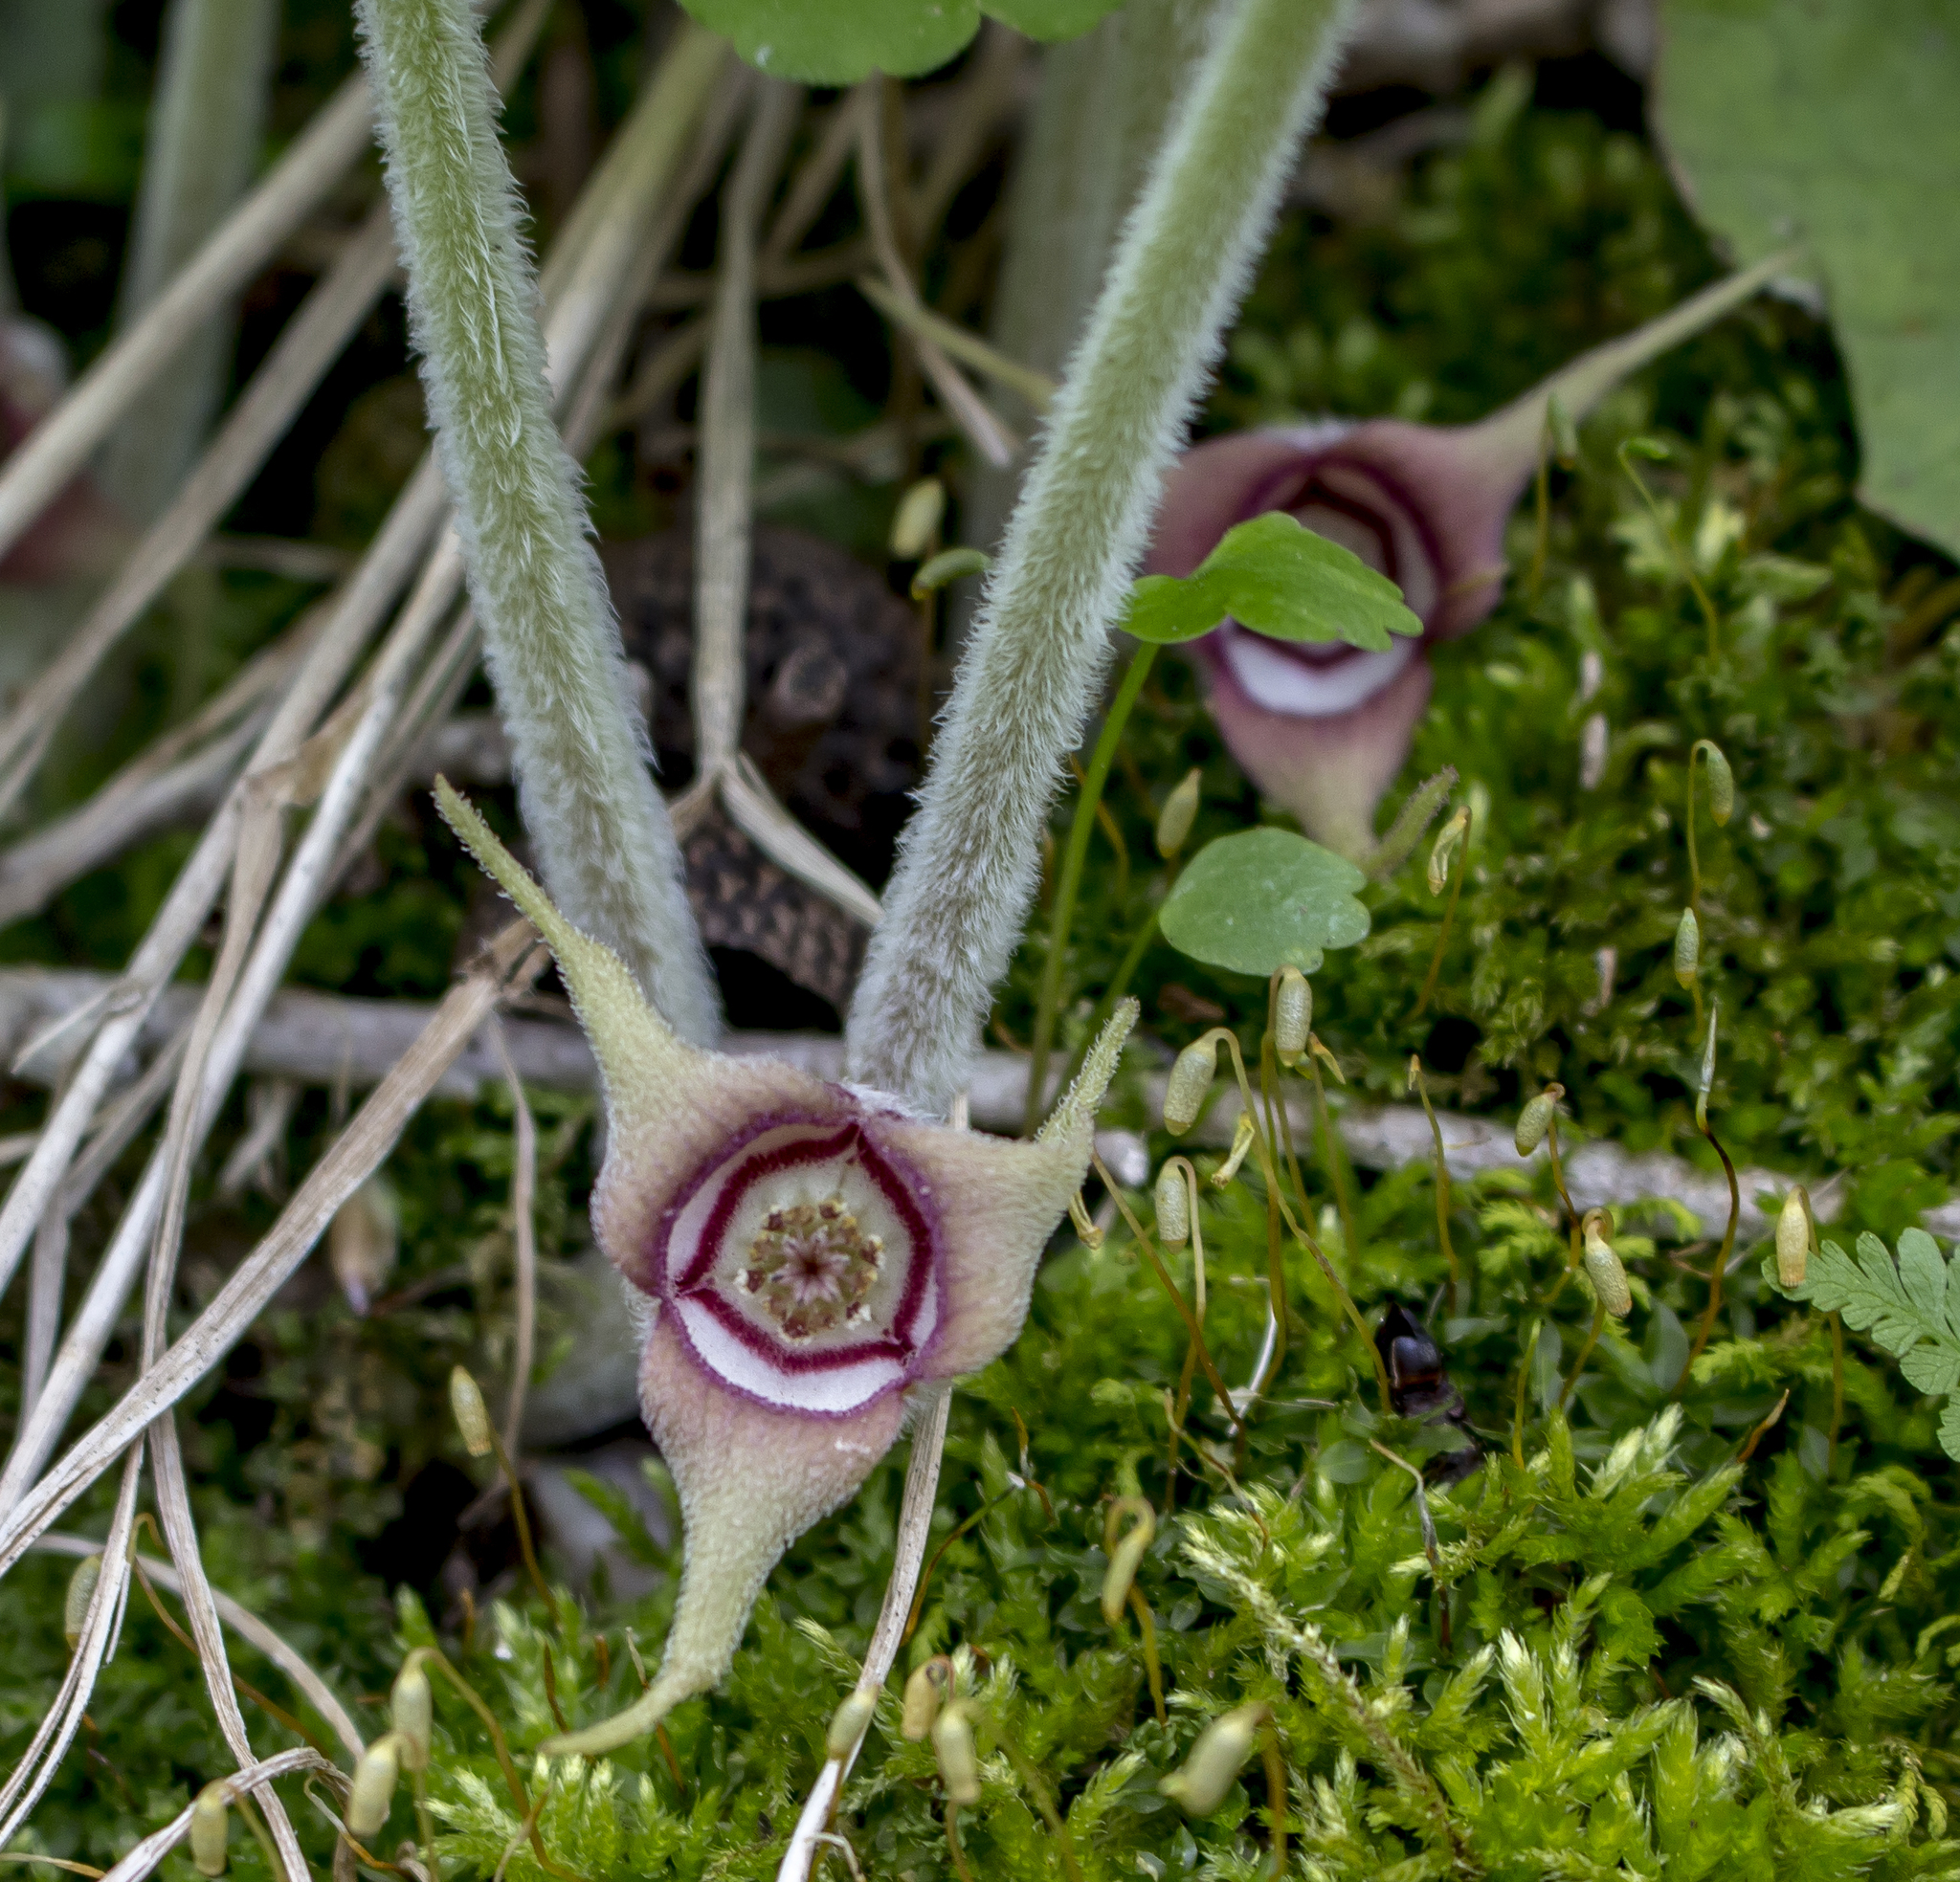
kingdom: Plantae
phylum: Tracheophyta
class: Magnoliopsida
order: Piperales
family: Aristolochiaceae
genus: Asarum
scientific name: Asarum canadense
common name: Wild ginger
